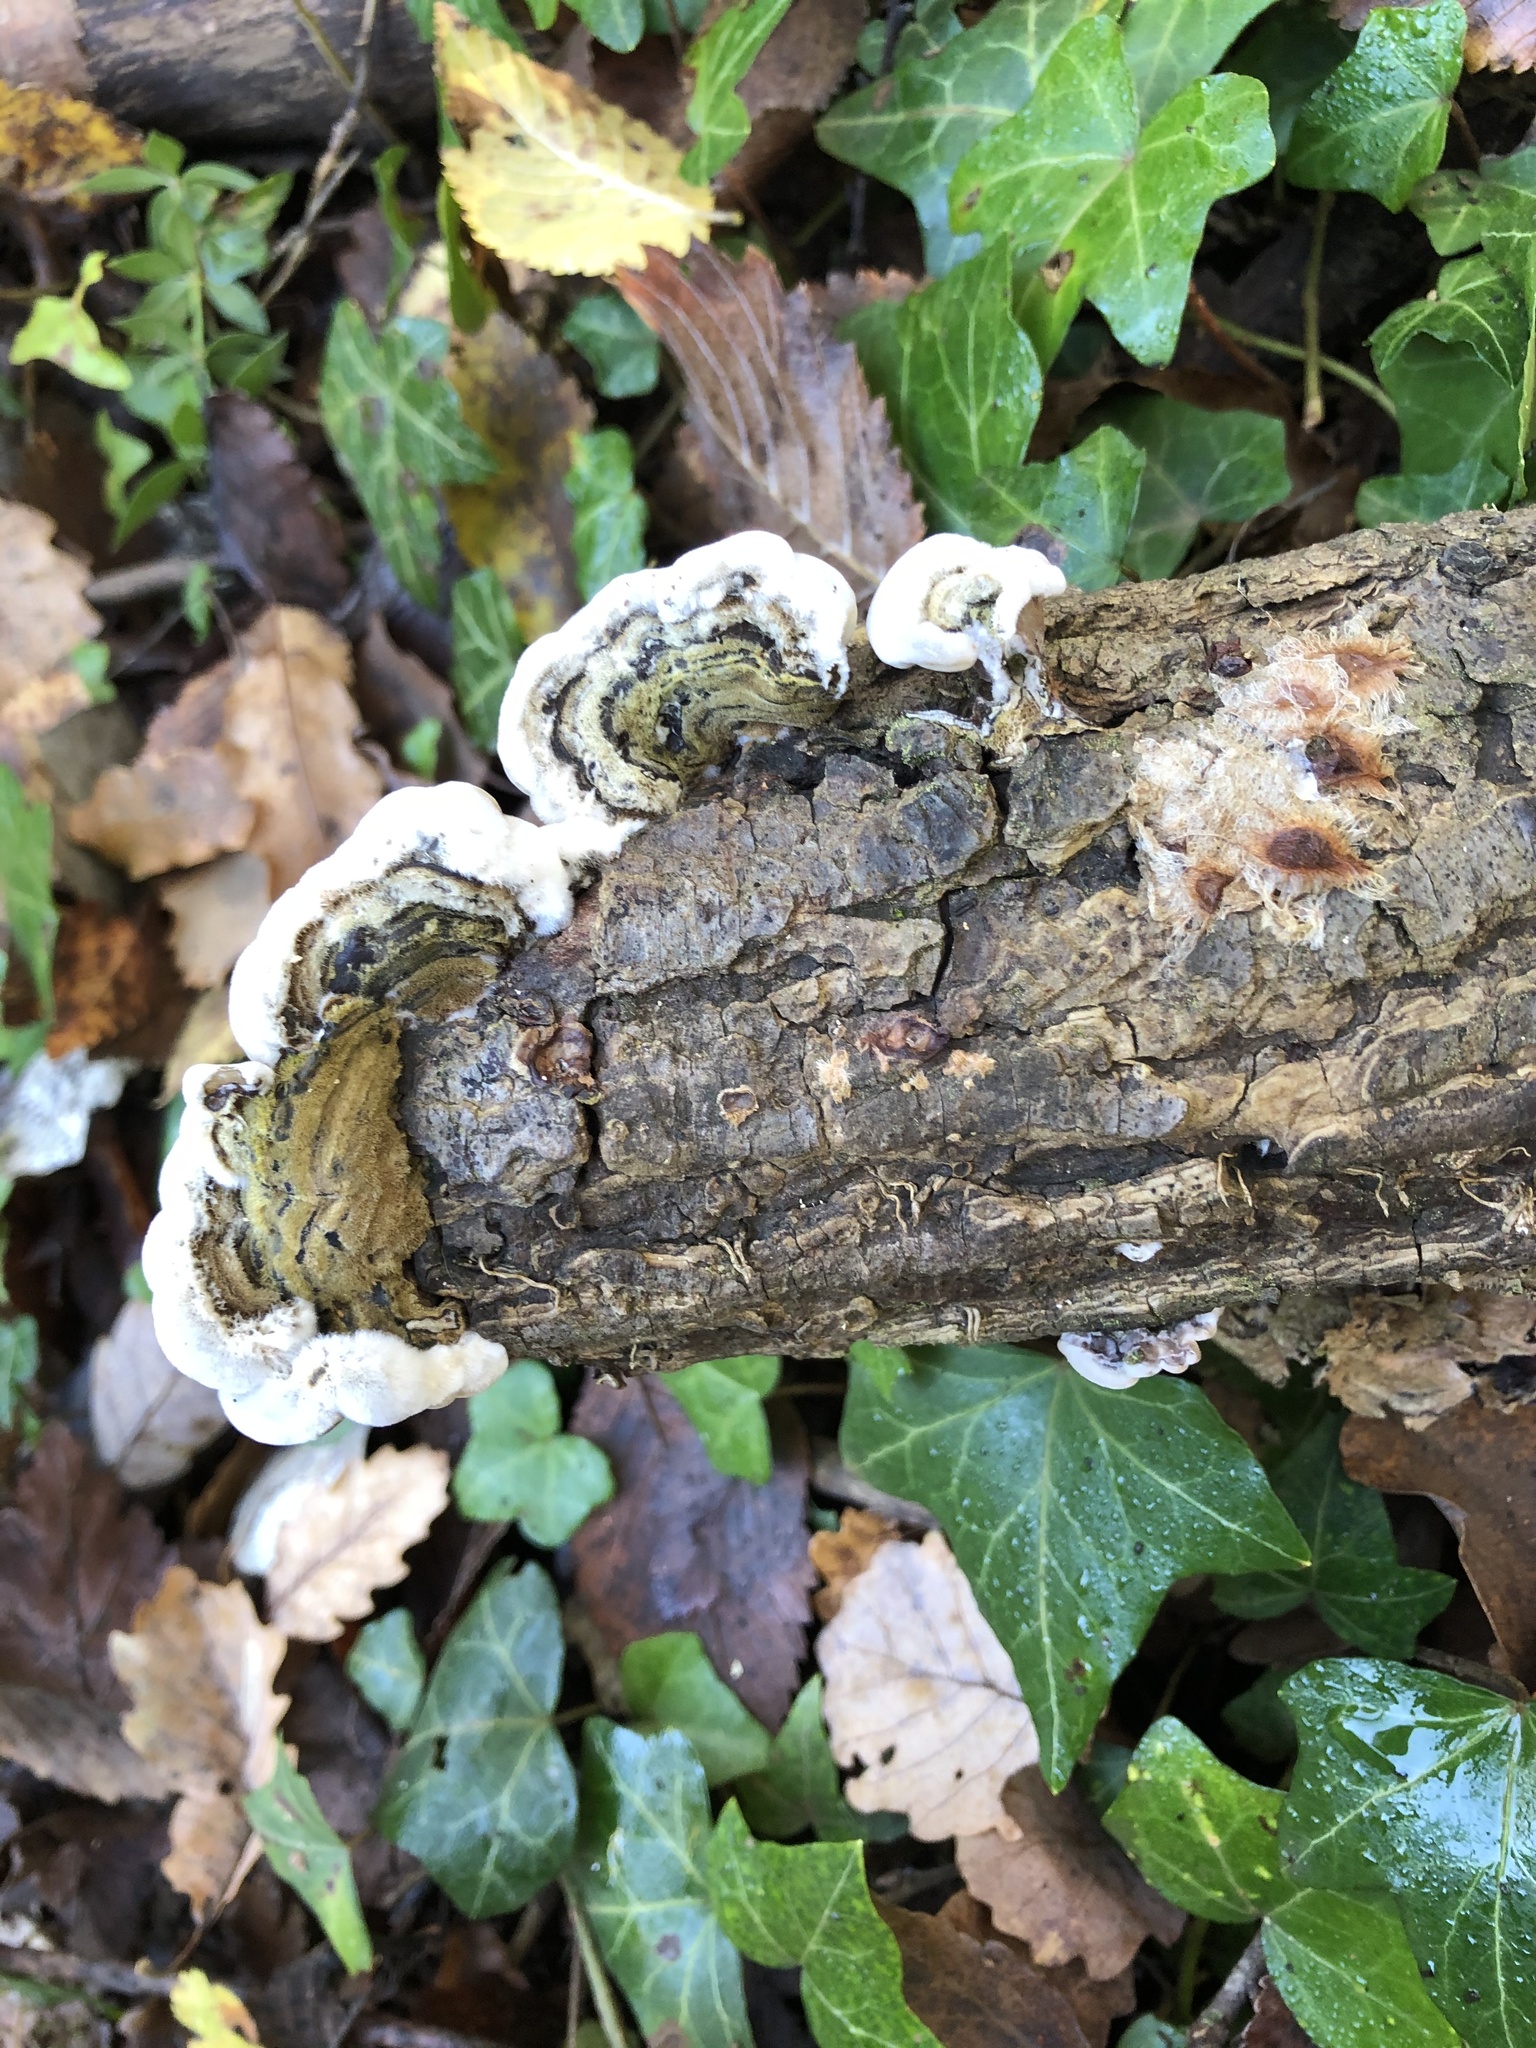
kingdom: Fungi
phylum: Basidiomycota
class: Agaricomycetes
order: Auriculariales
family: Auriculariaceae
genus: Auricularia
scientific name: Auricularia mesenterica
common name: Tripe fungus
